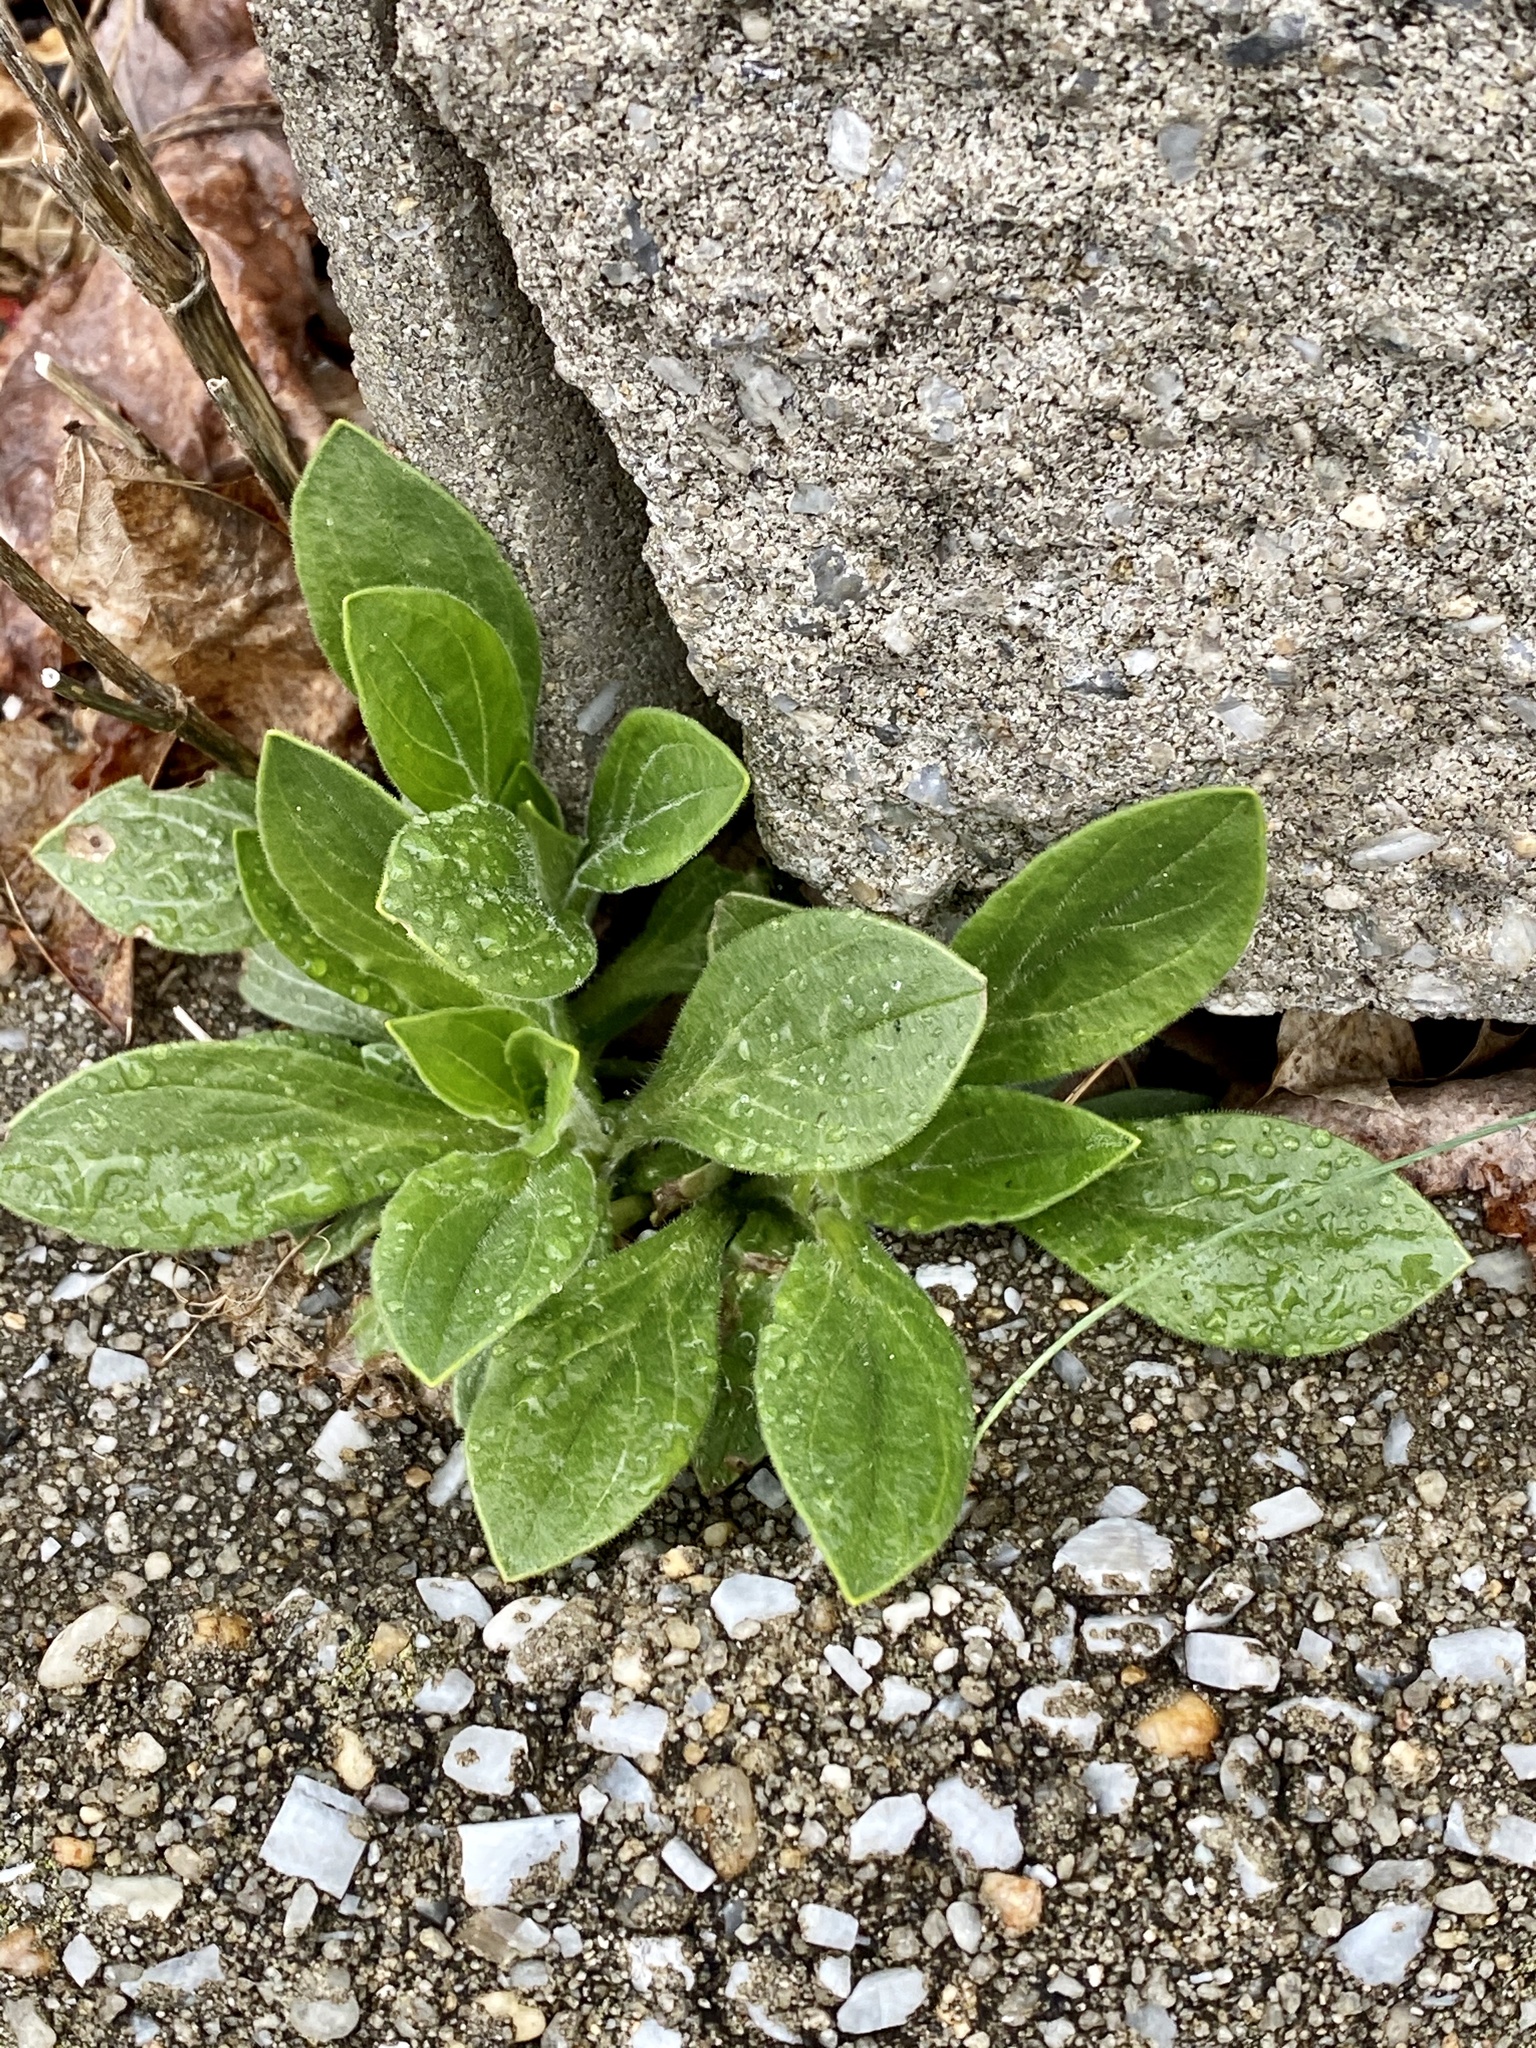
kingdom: Plantae
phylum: Tracheophyta
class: Magnoliopsida
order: Caryophyllales
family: Caryophyllaceae
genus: Silene
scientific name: Silene latifolia
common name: White campion
